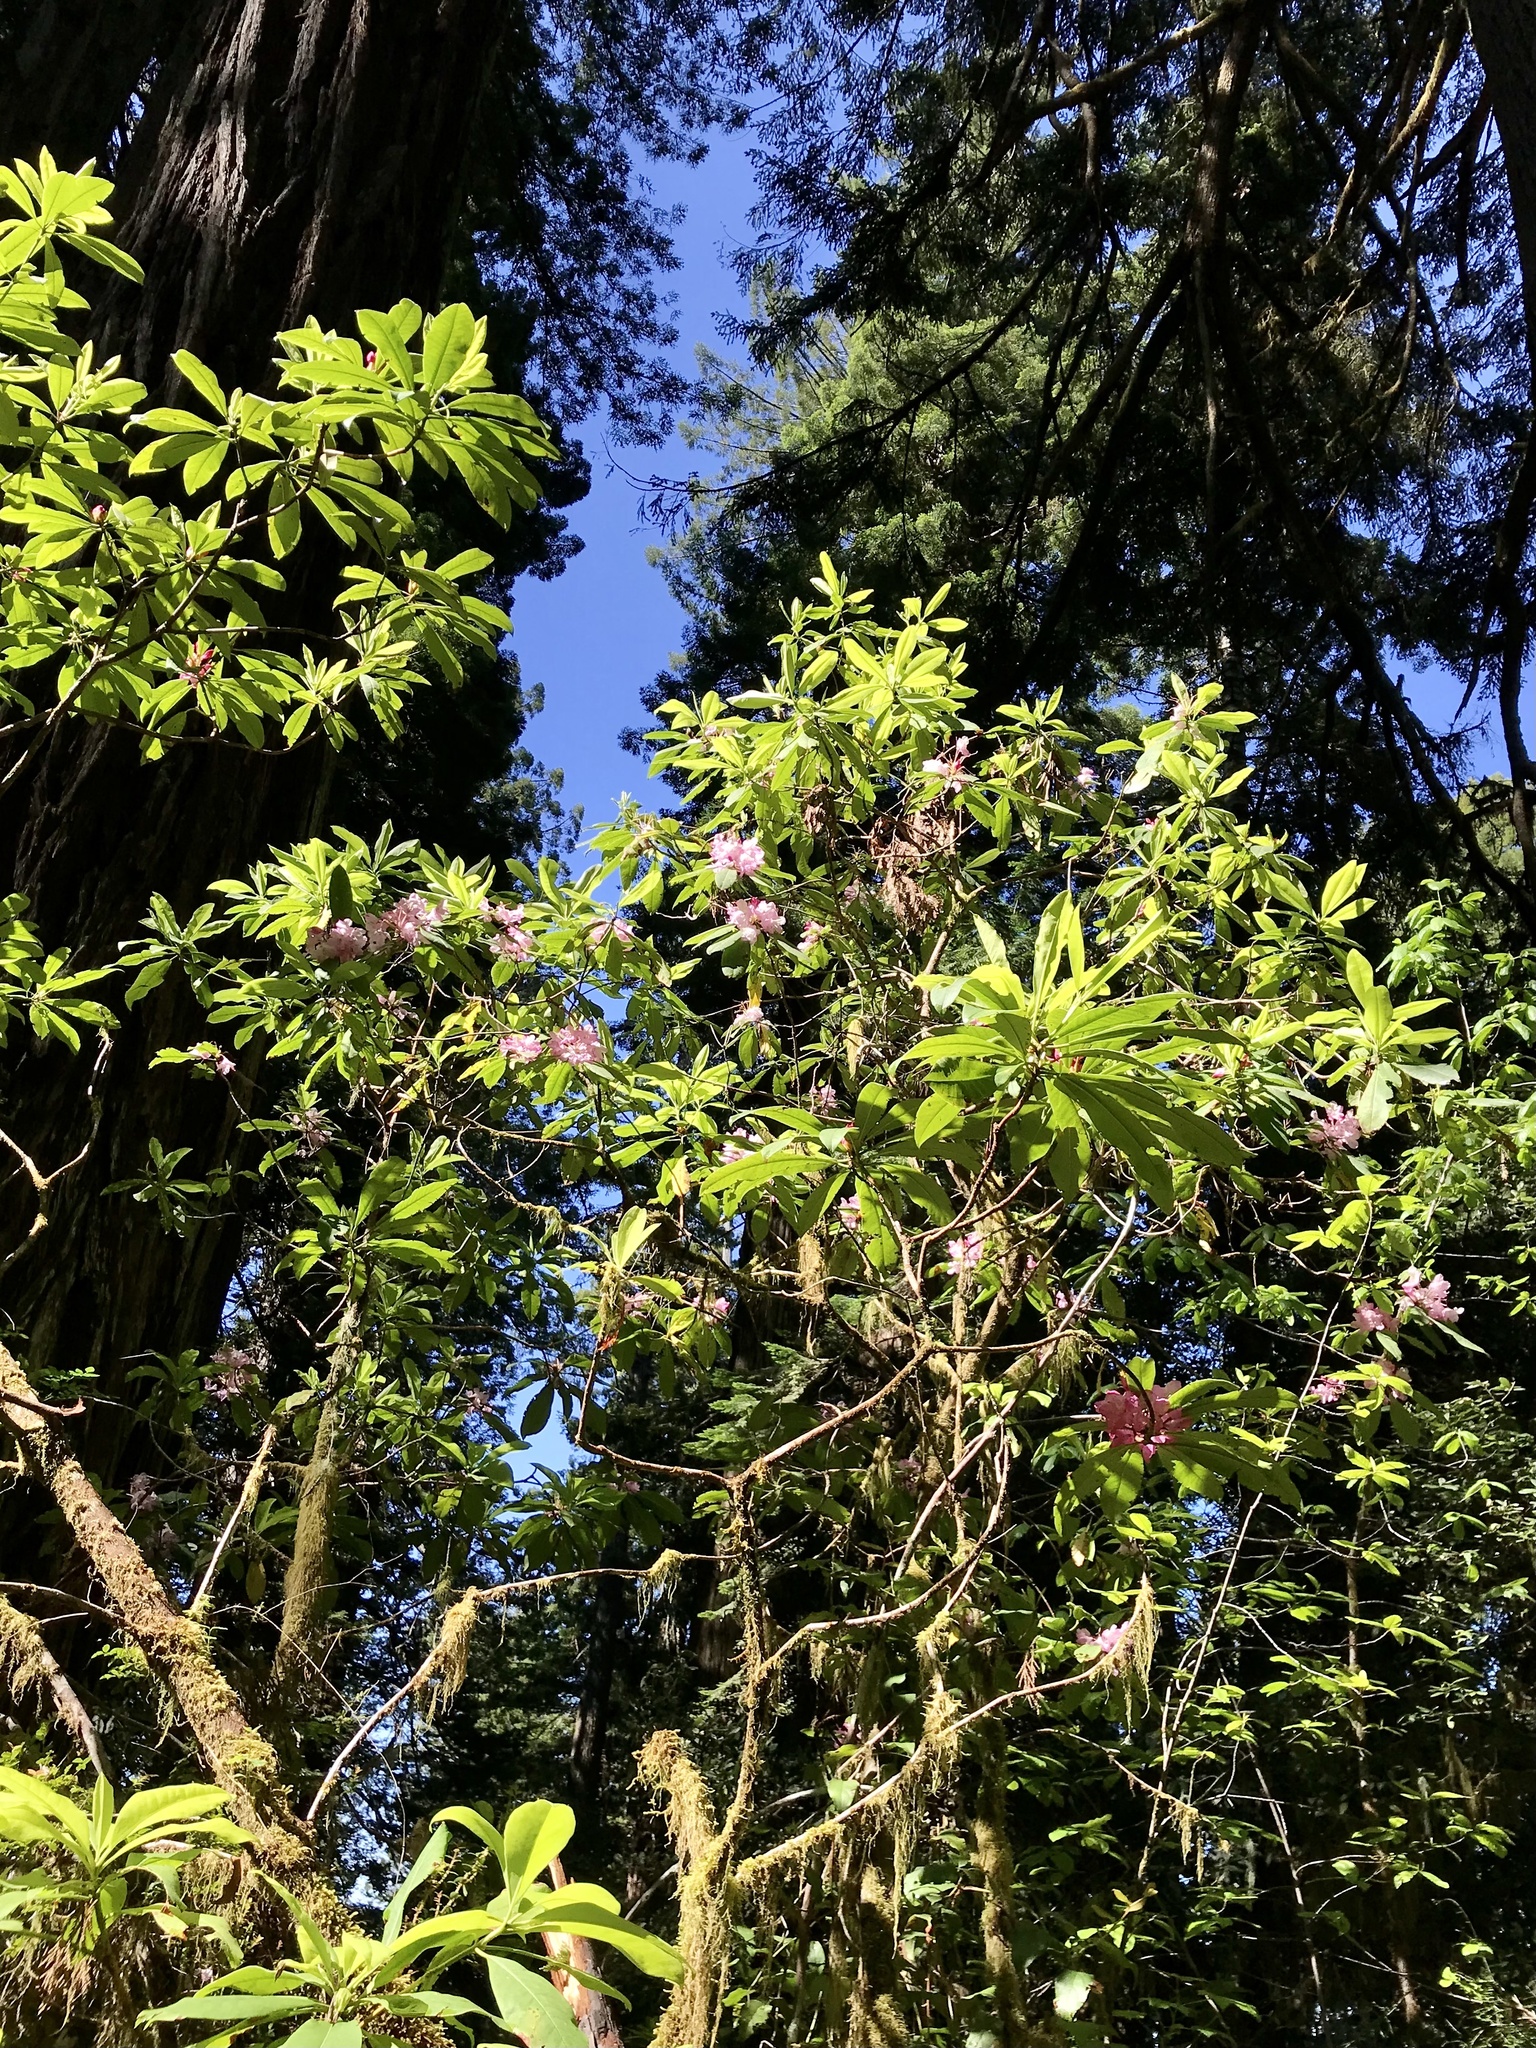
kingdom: Plantae
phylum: Tracheophyta
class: Magnoliopsida
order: Ericales
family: Ericaceae
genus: Rhododendron
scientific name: Rhododendron macrophyllum
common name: California rose bay
